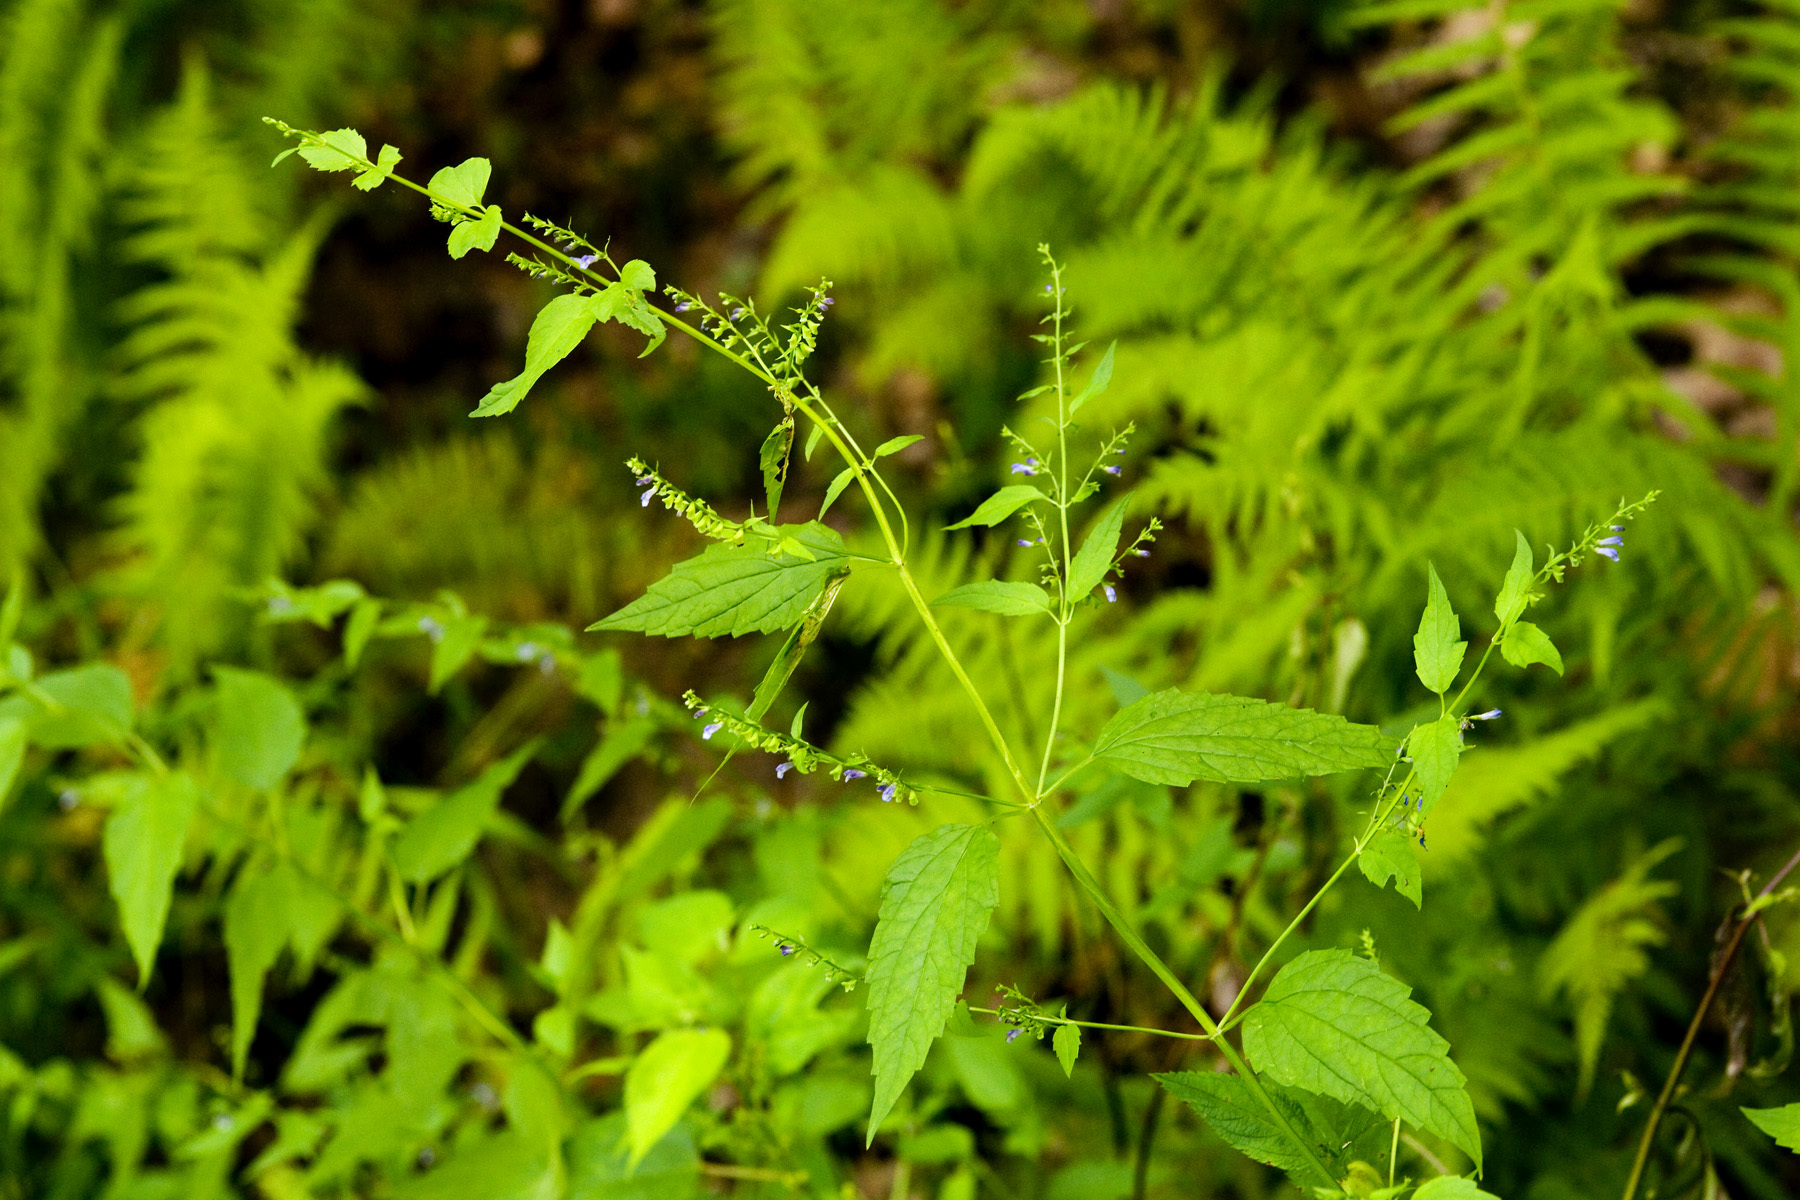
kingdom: Plantae
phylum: Tracheophyta
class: Magnoliopsida
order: Lamiales
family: Lamiaceae
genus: Scutellaria
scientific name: Scutellaria lateriflora
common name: Blue skullcap
